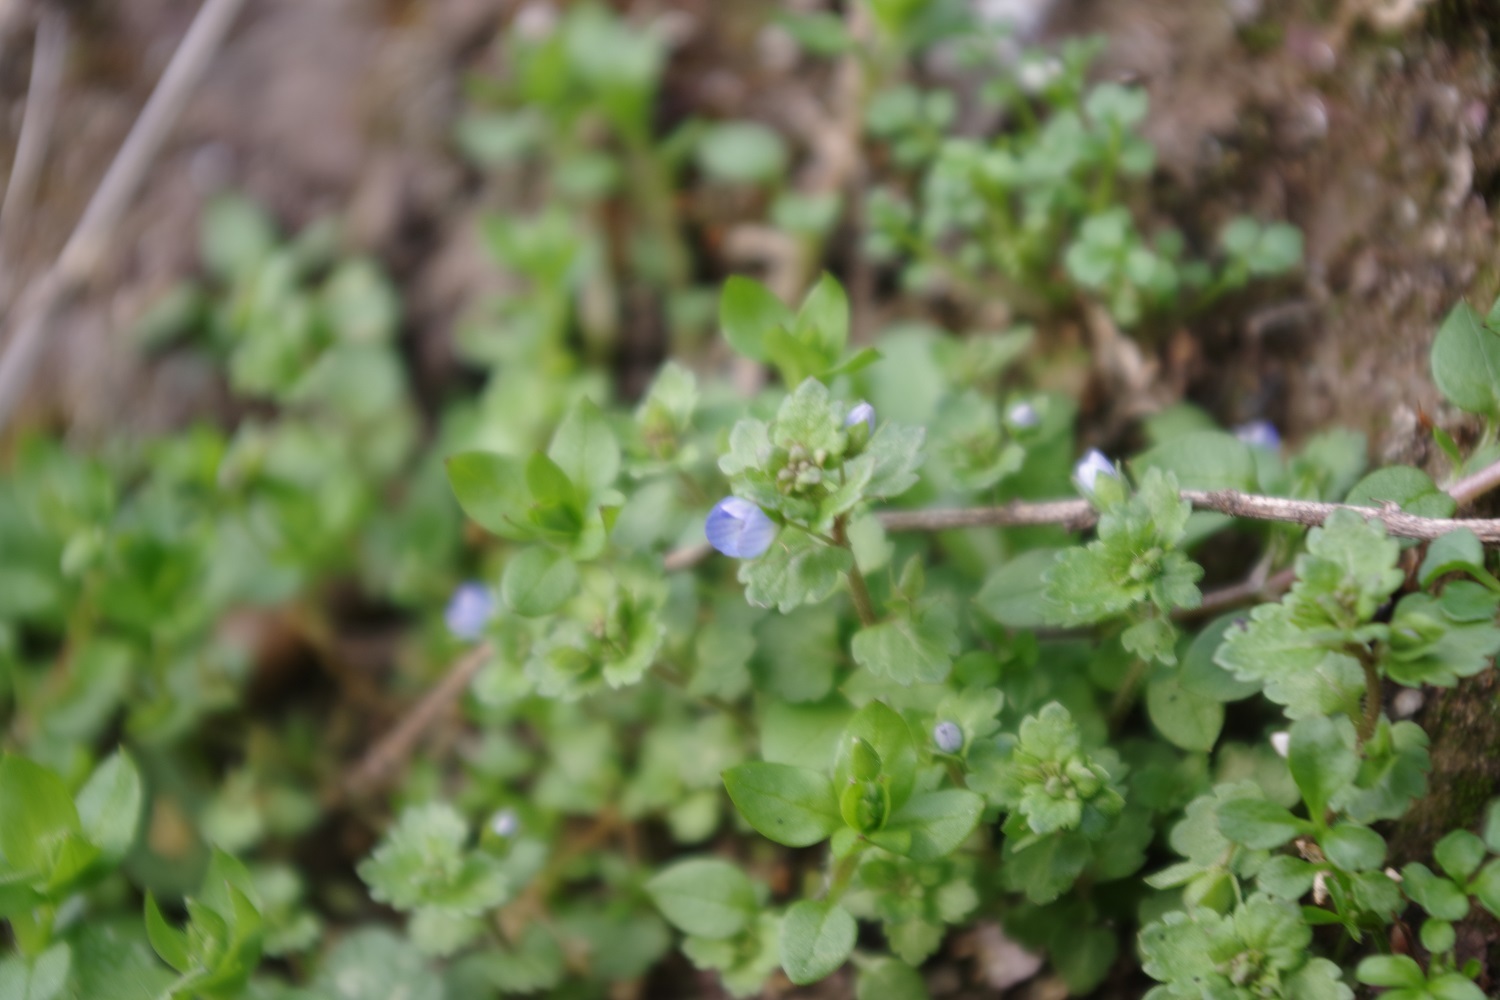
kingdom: Plantae
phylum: Tracheophyta
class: Magnoliopsida
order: Lamiales
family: Plantaginaceae
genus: Veronica
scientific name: Veronica polita
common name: Grey field-speedwell
